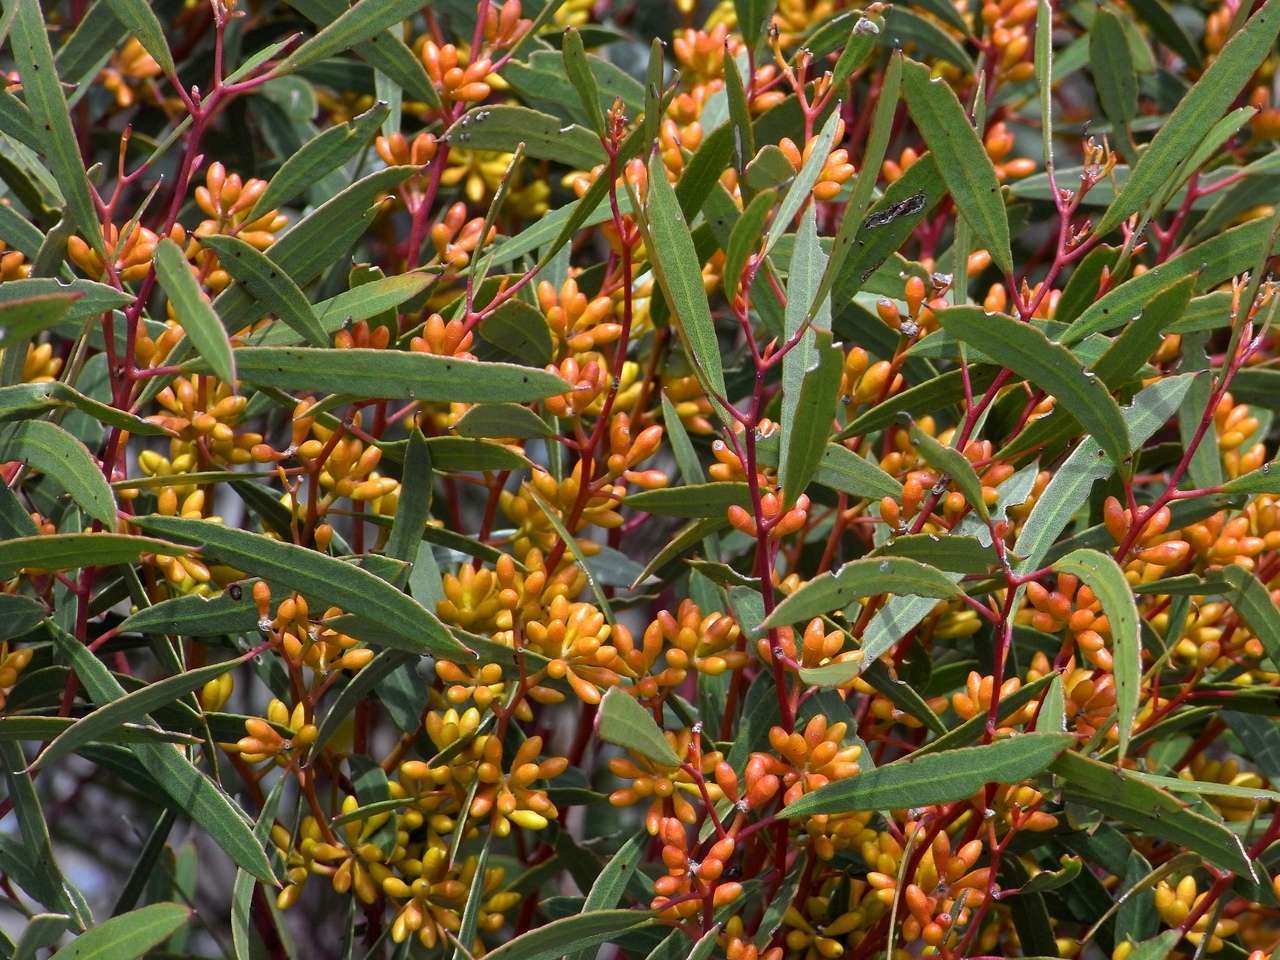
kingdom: Plantae
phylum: Tracheophyta
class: Magnoliopsida
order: Myrtales
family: Myrtaceae
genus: Eucalyptus
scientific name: Eucalyptus foecunda
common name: Freemantle mallee
